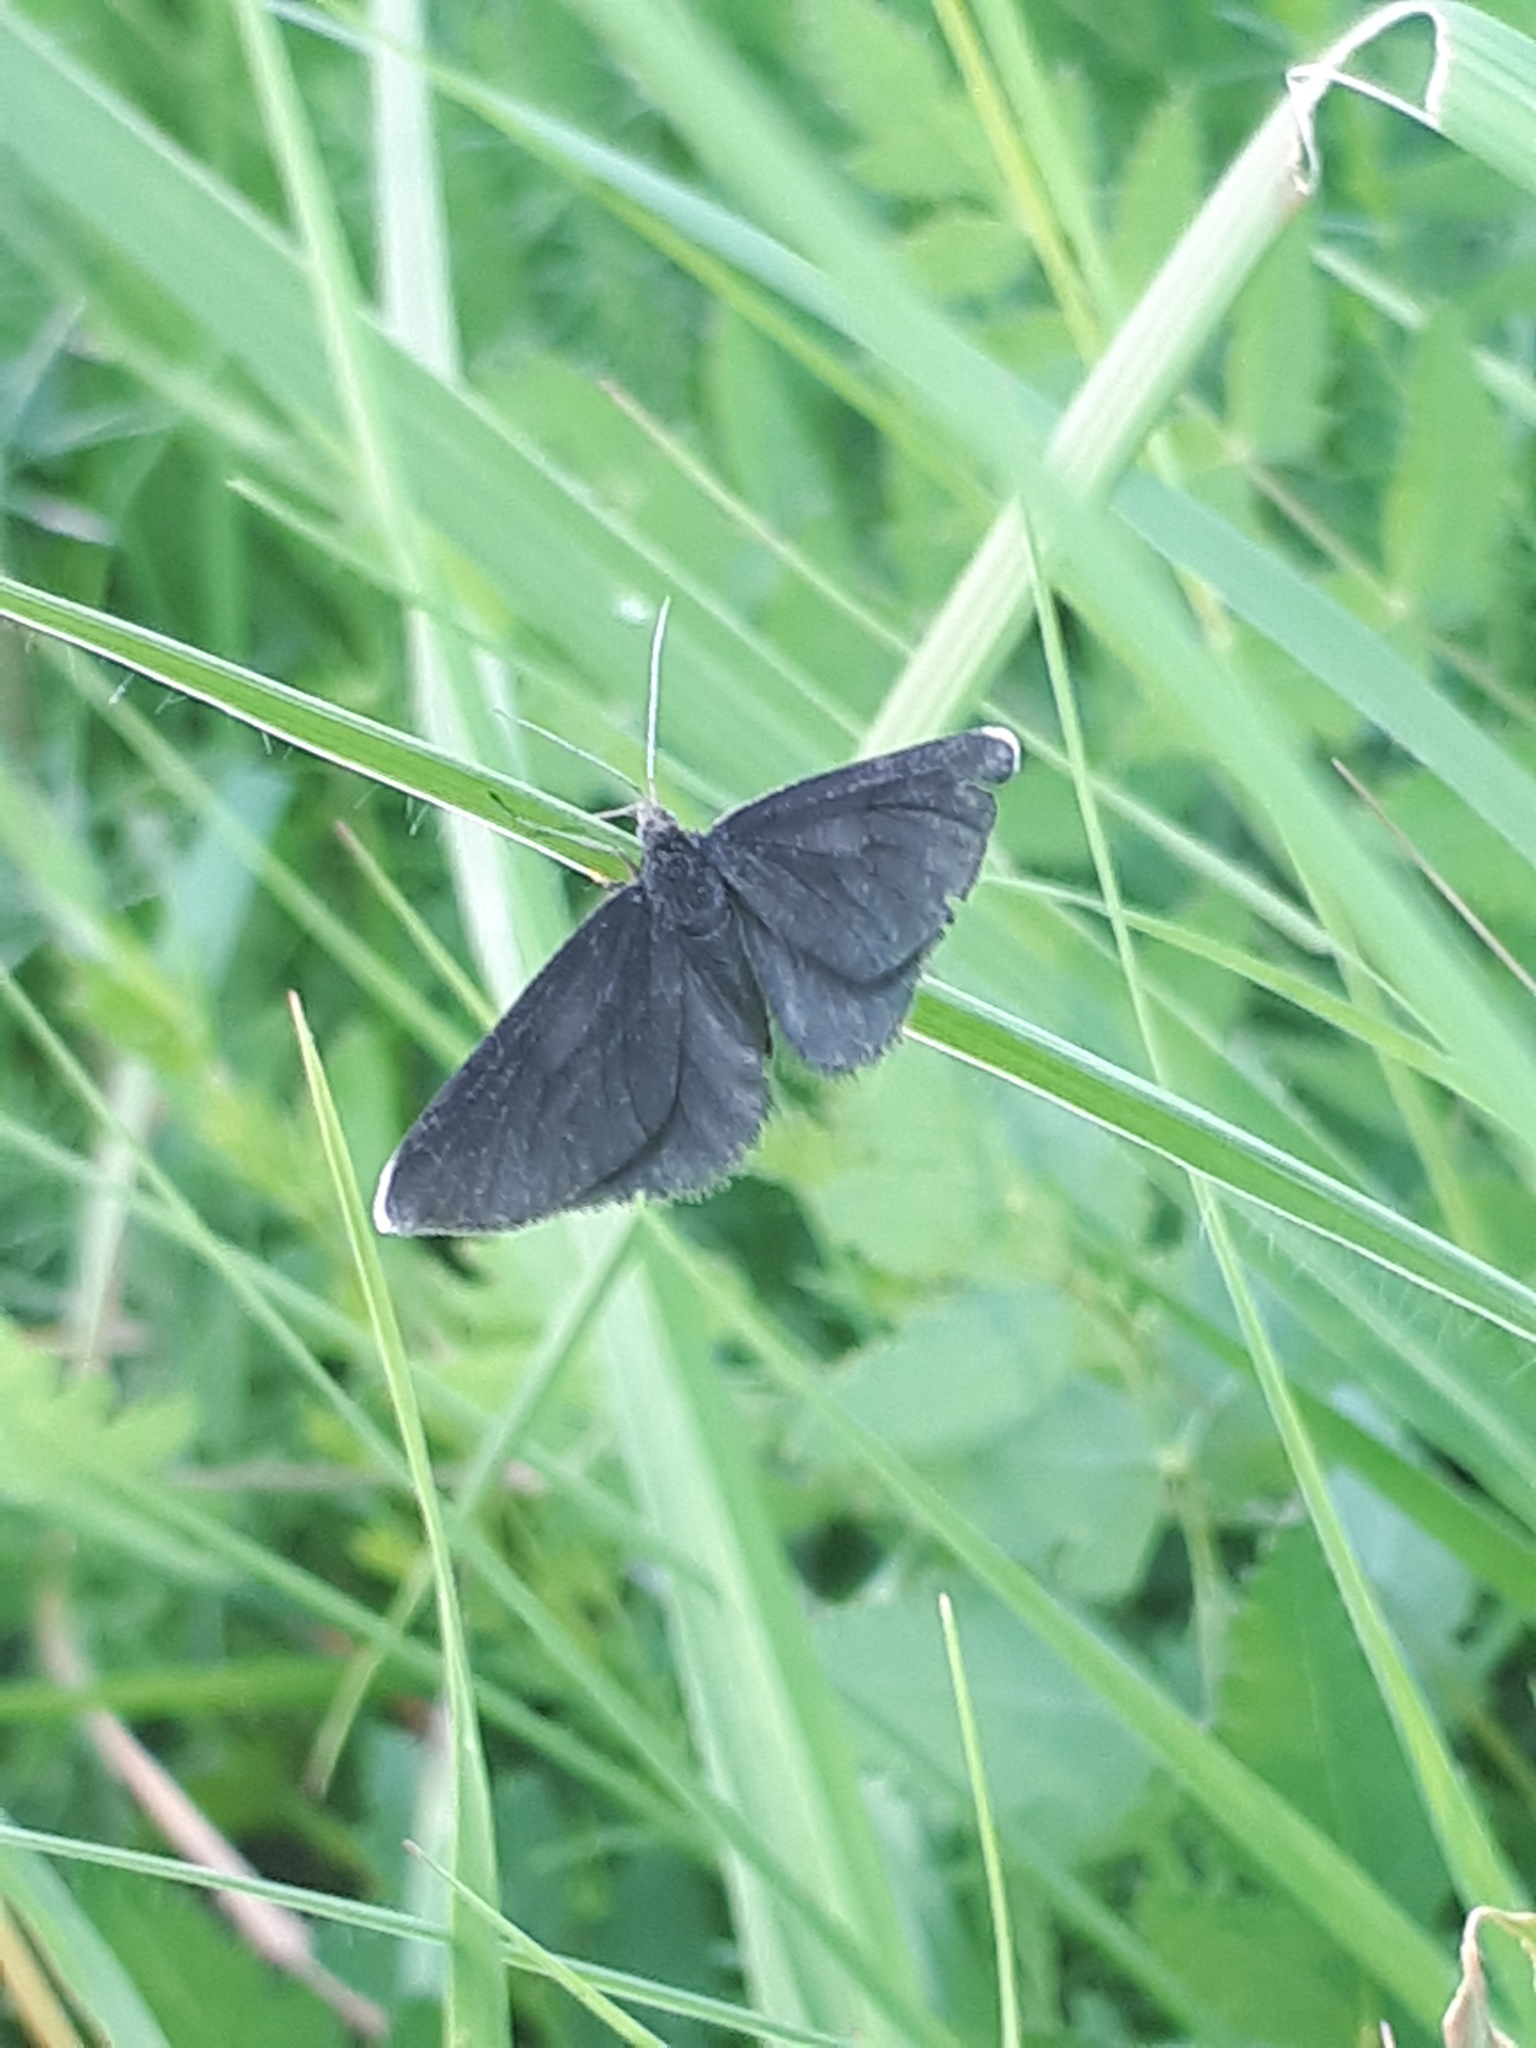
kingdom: Animalia
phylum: Arthropoda
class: Insecta
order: Lepidoptera
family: Geometridae
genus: Odezia
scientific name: Odezia atrata
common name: Chimney sweeper
